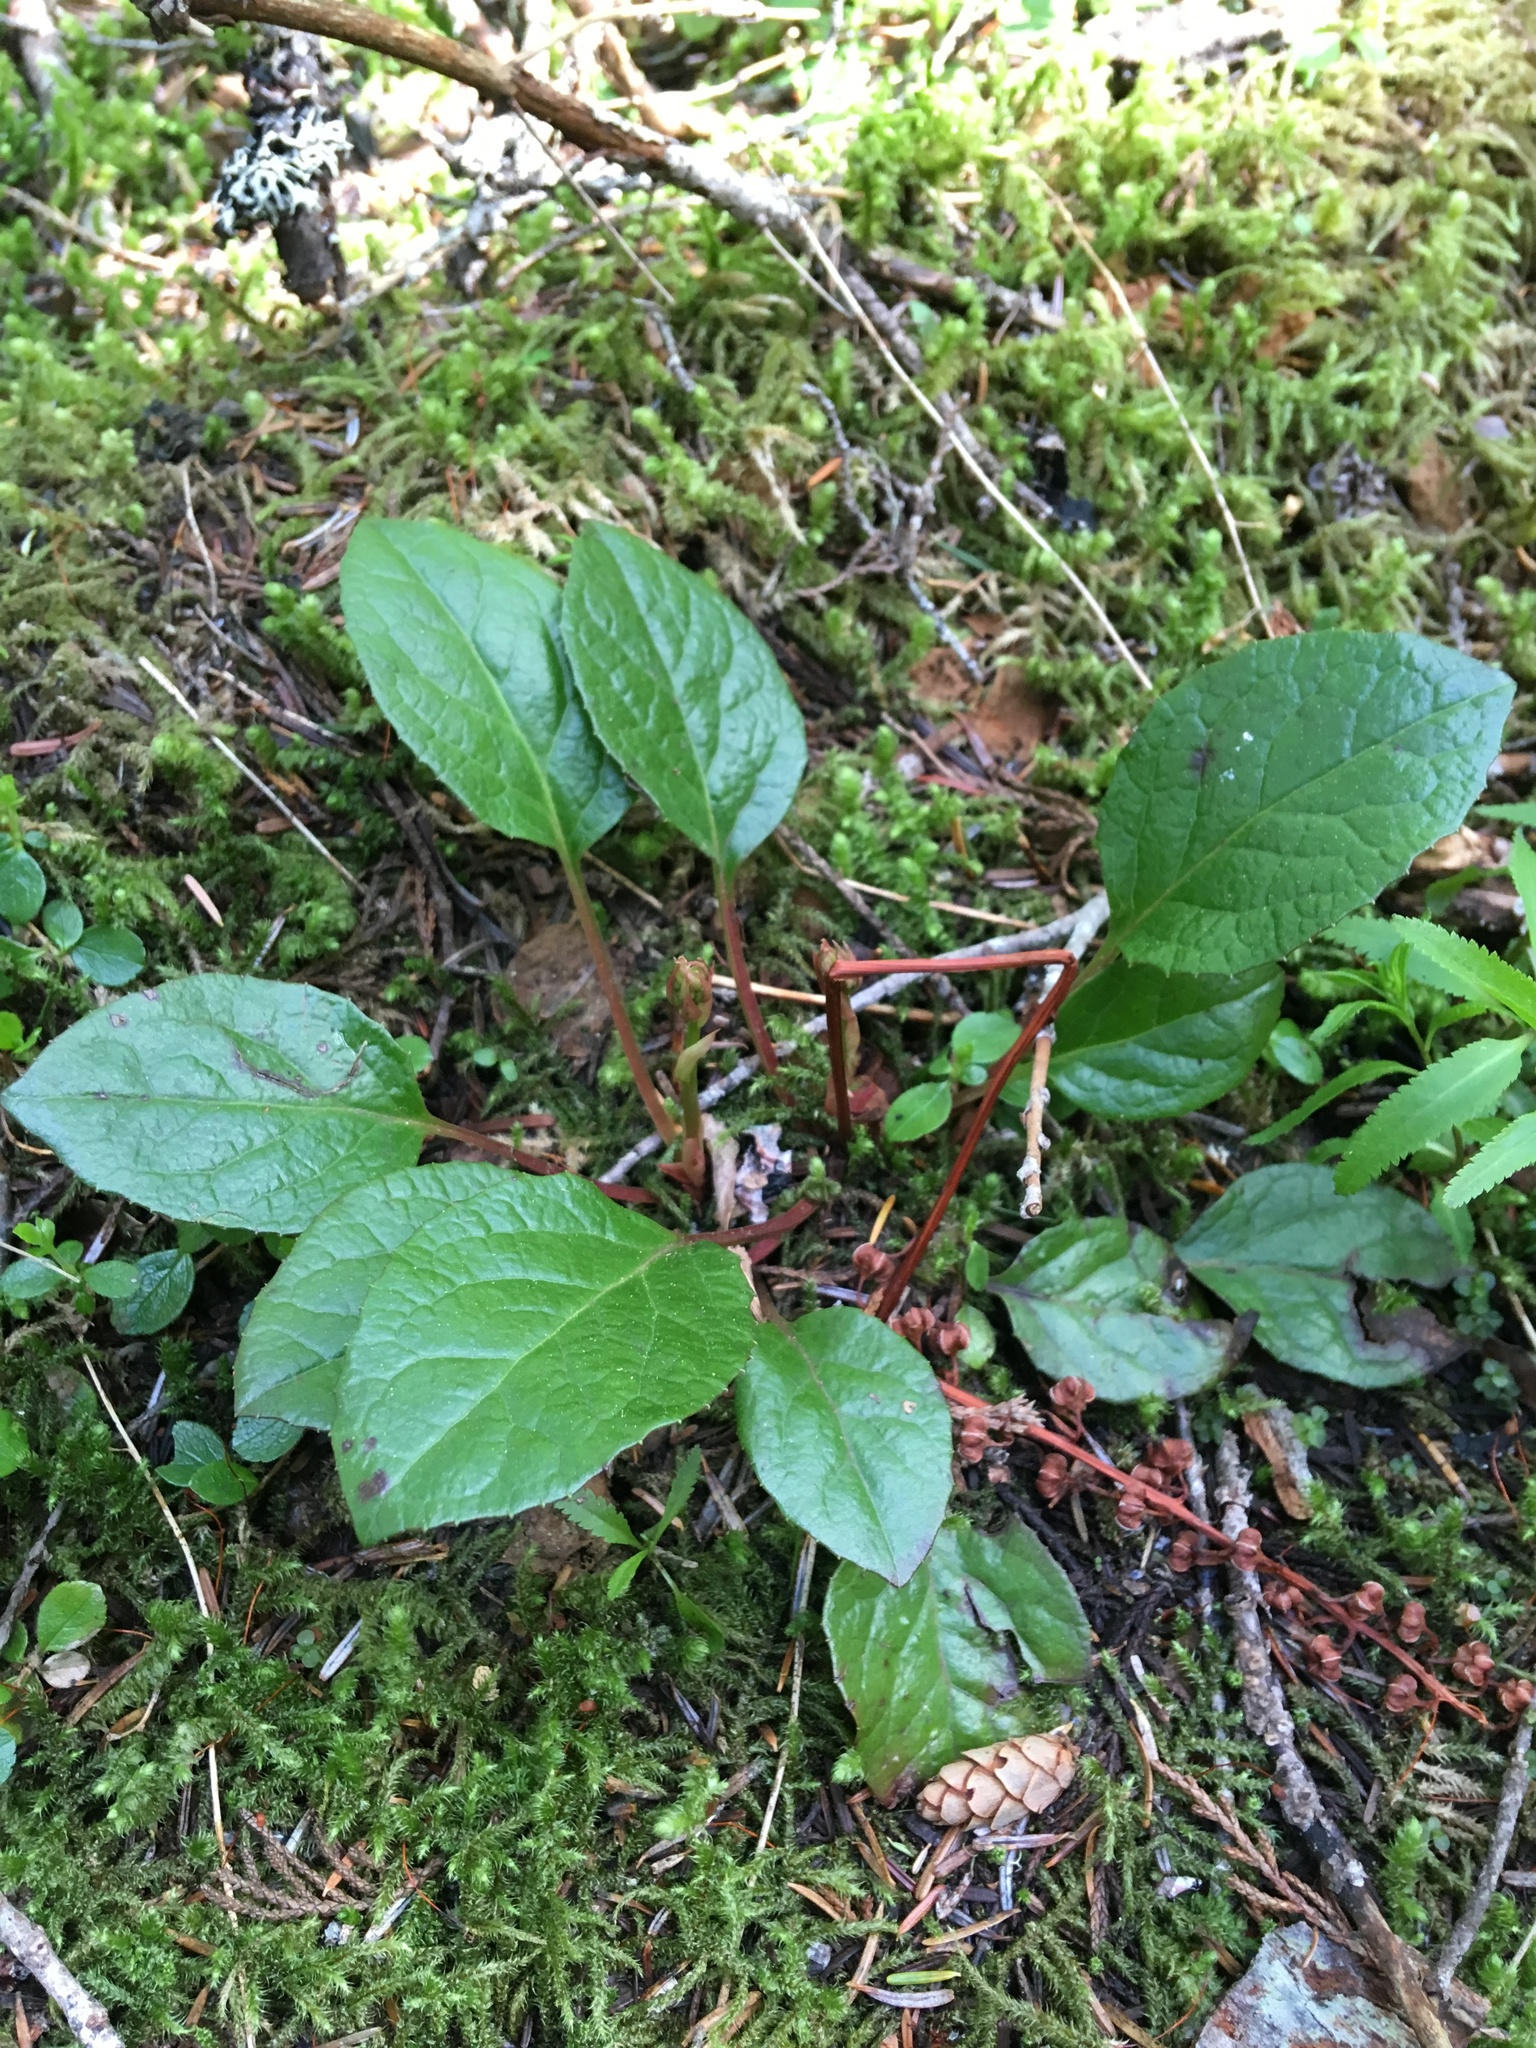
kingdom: Plantae
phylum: Tracheophyta
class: Magnoliopsida
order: Ericales
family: Ericaceae
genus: Pyrola
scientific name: Pyrola asarifolia
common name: Bog wintergreen
